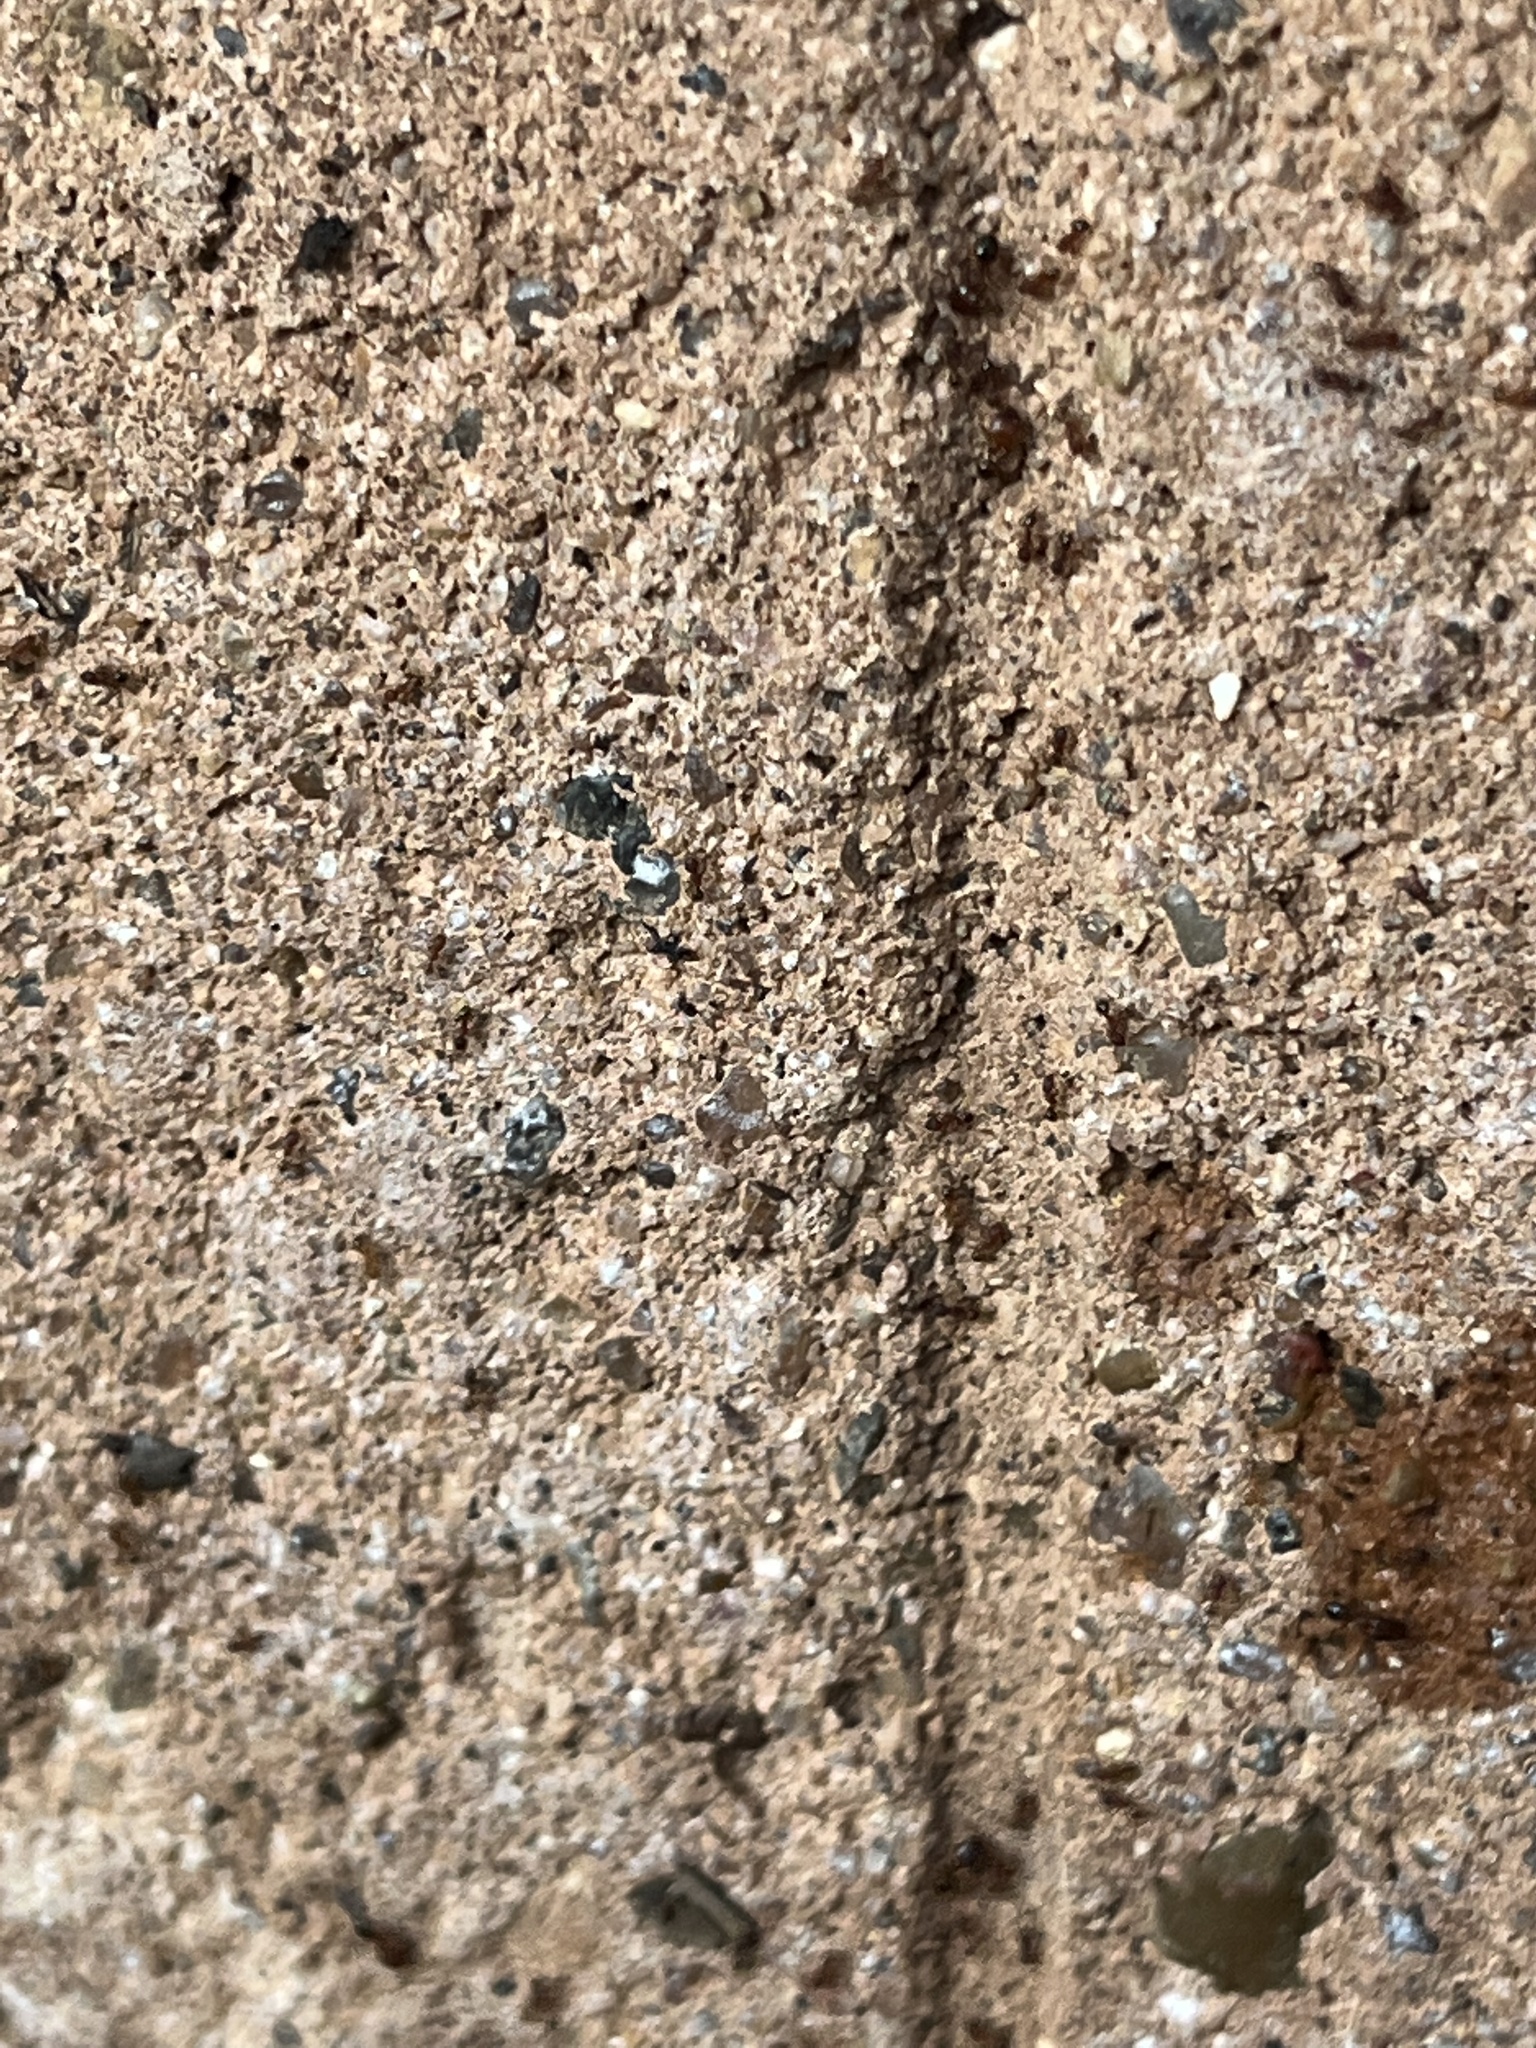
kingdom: Animalia
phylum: Arthropoda
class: Insecta
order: Hymenoptera
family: Formicidae
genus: Pheidole
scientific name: Pheidole navigans
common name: Navigating big-headed ant
